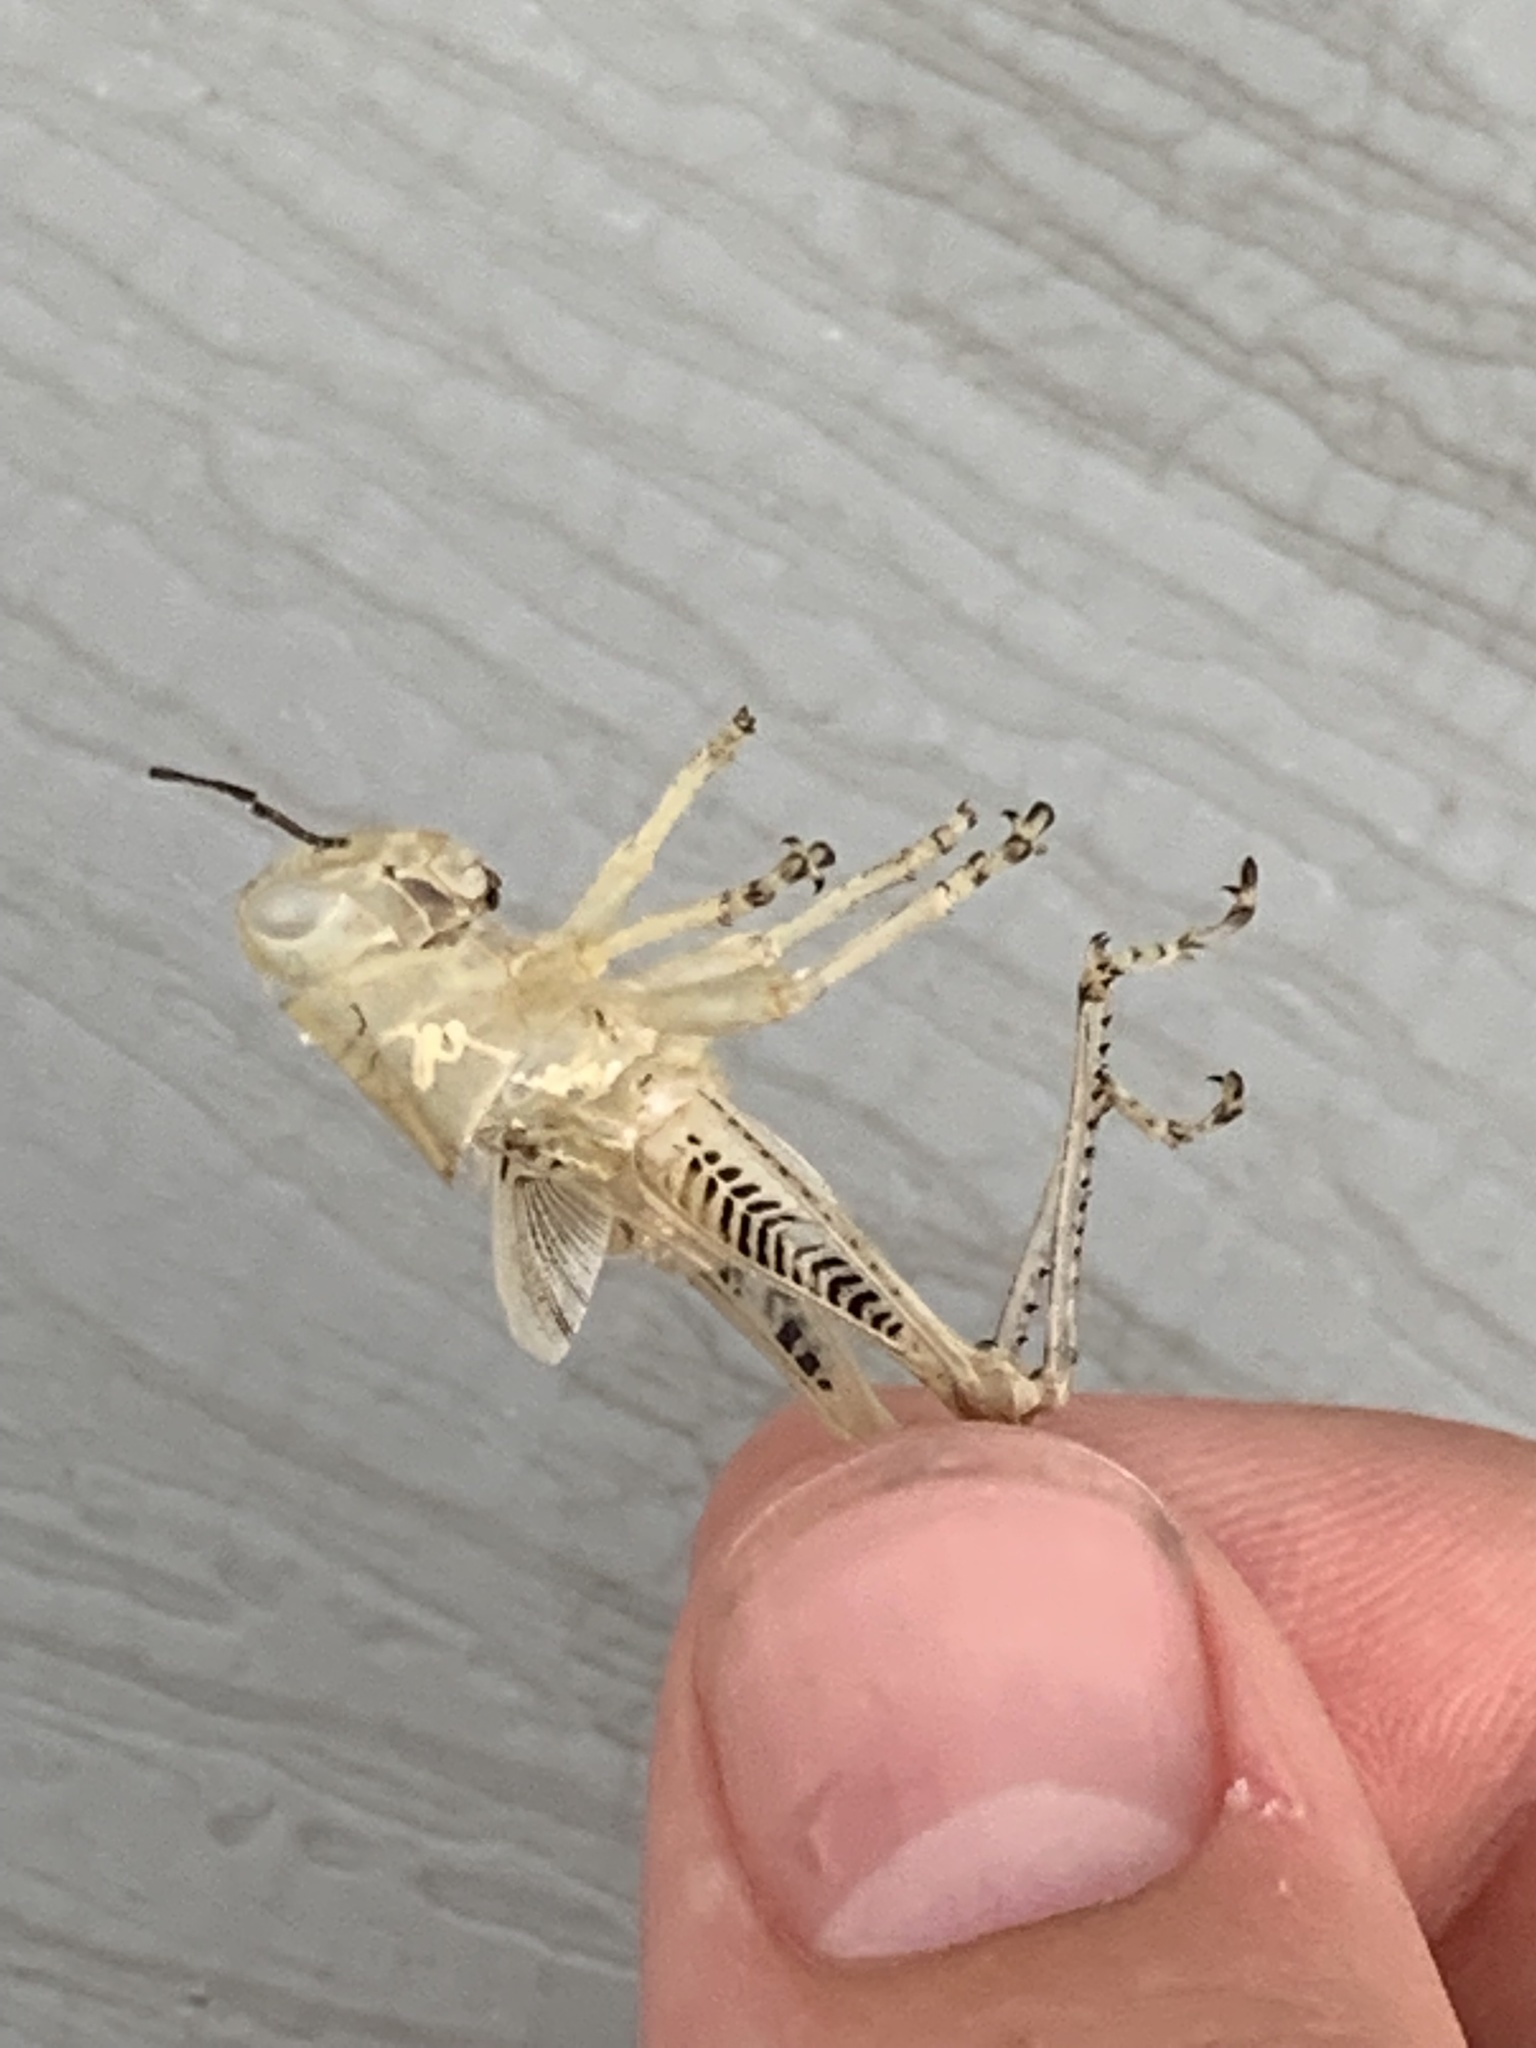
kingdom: Animalia
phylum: Arthropoda
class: Insecta
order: Orthoptera
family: Acrididae
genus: Melanoplus
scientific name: Melanoplus differentialis
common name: Differential grasshopper
